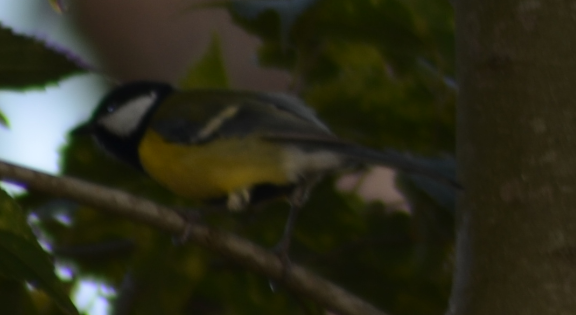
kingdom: Animalia
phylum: Chordata
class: Aves
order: Passeriformes
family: Paridae
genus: Parus
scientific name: Parus major
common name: Great tit
